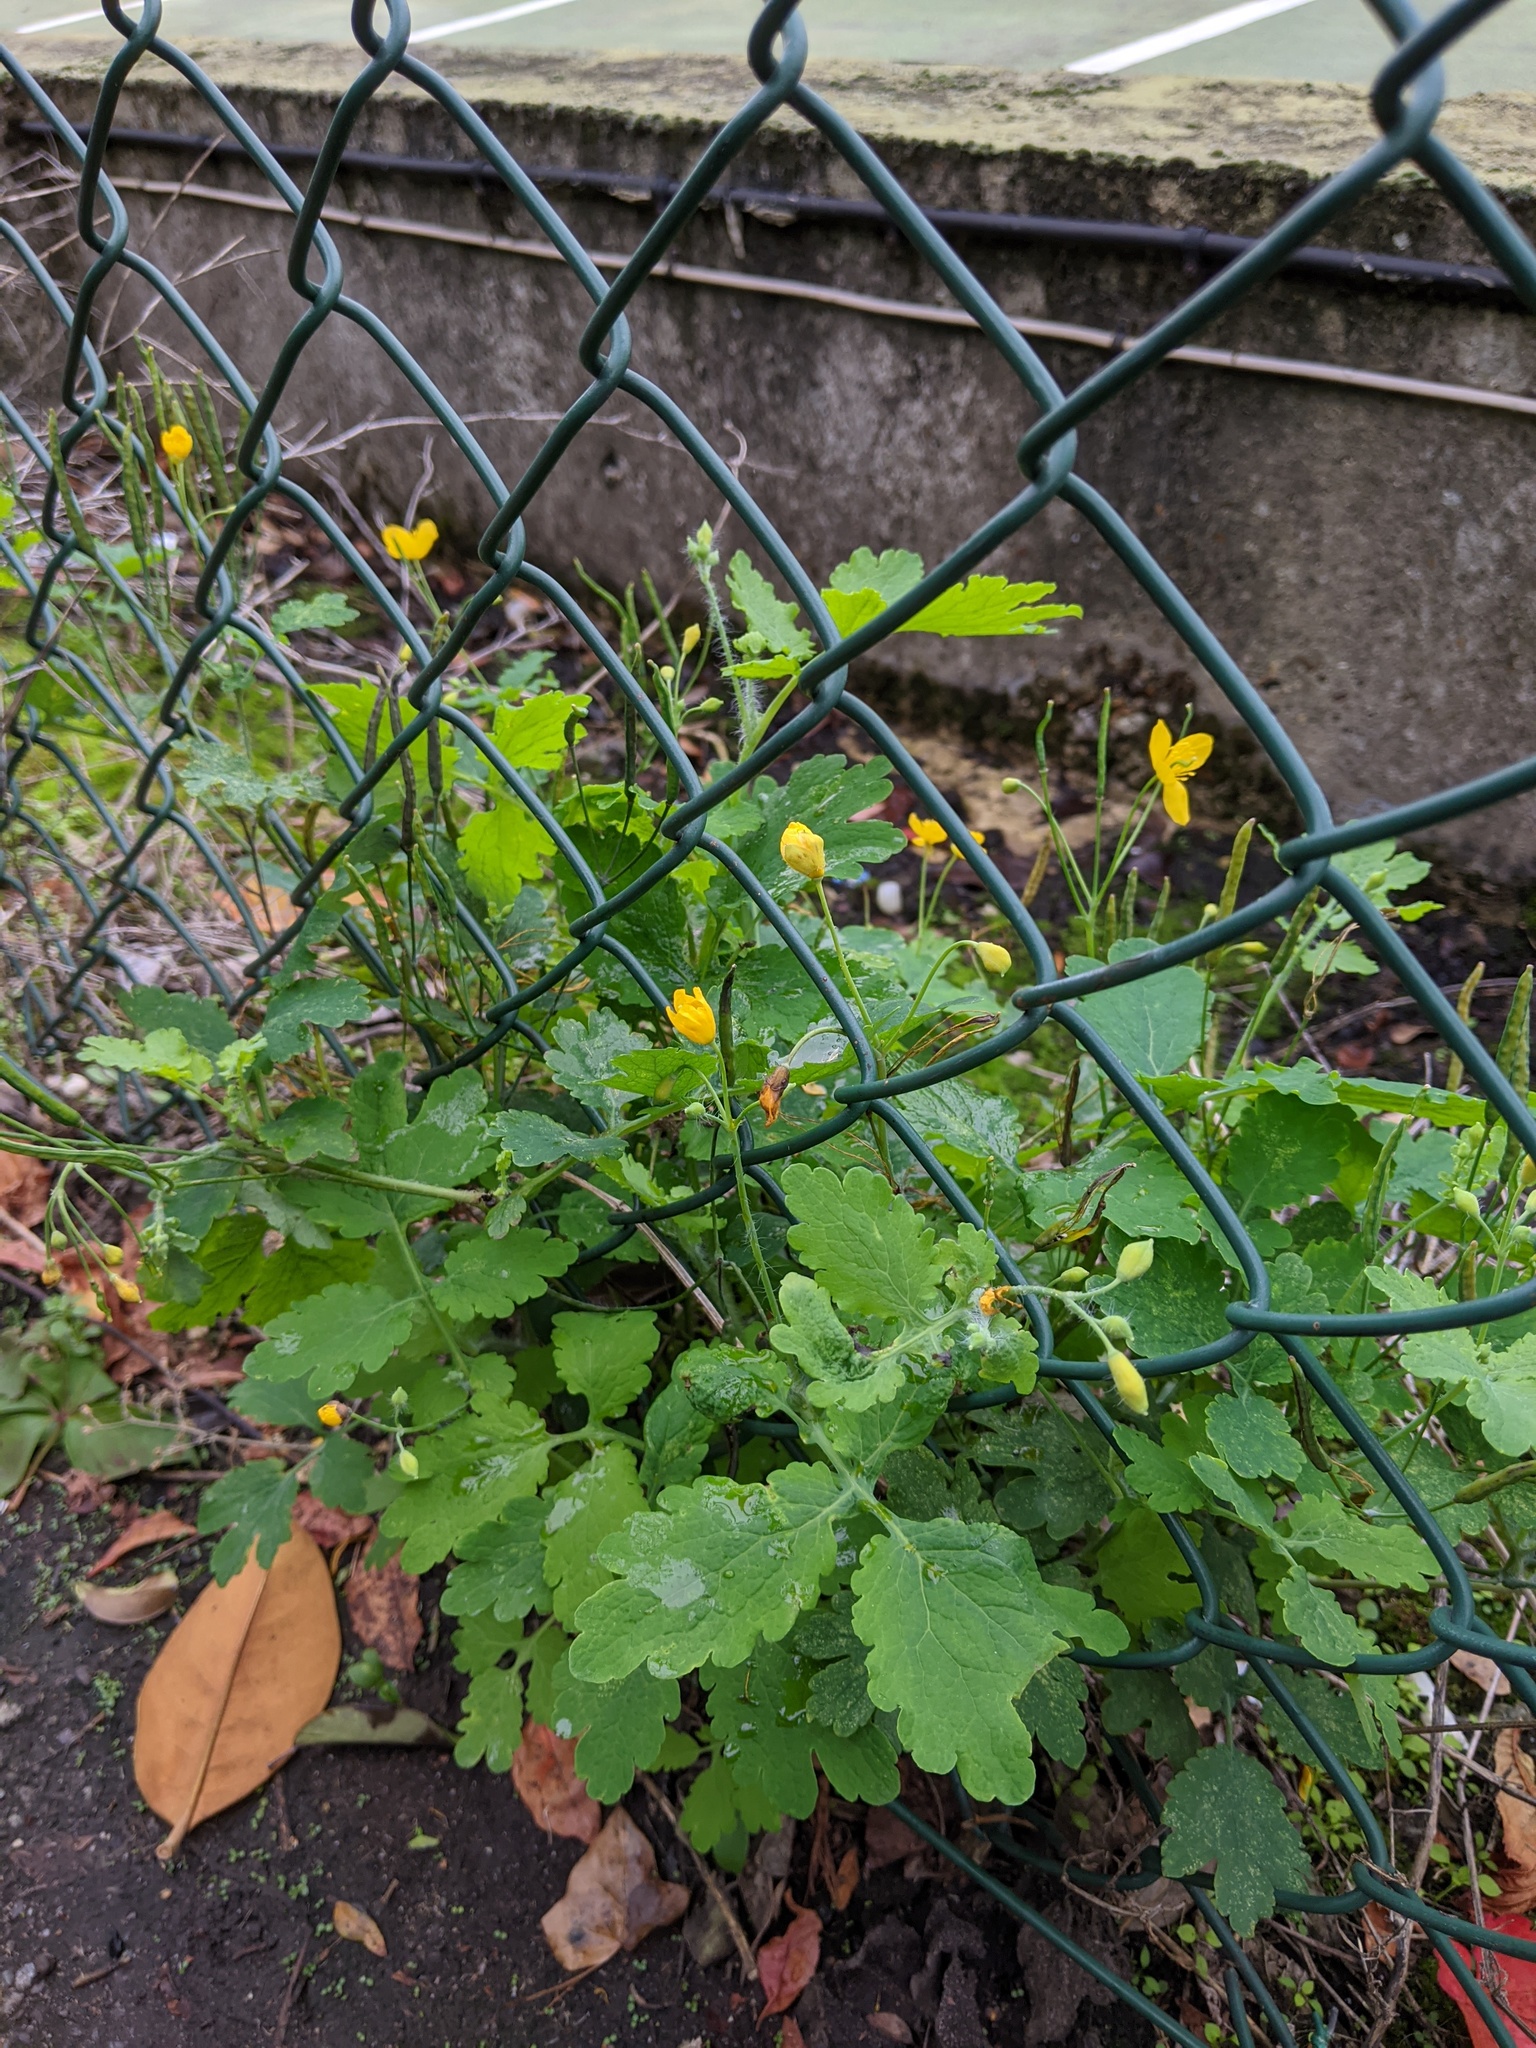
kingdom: Plantae
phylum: Tracheophyta
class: Magnoliopsida
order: Ranunculales
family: Papaveraceae
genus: Chelidonium
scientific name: Chelidonium majus
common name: Greater celandine
